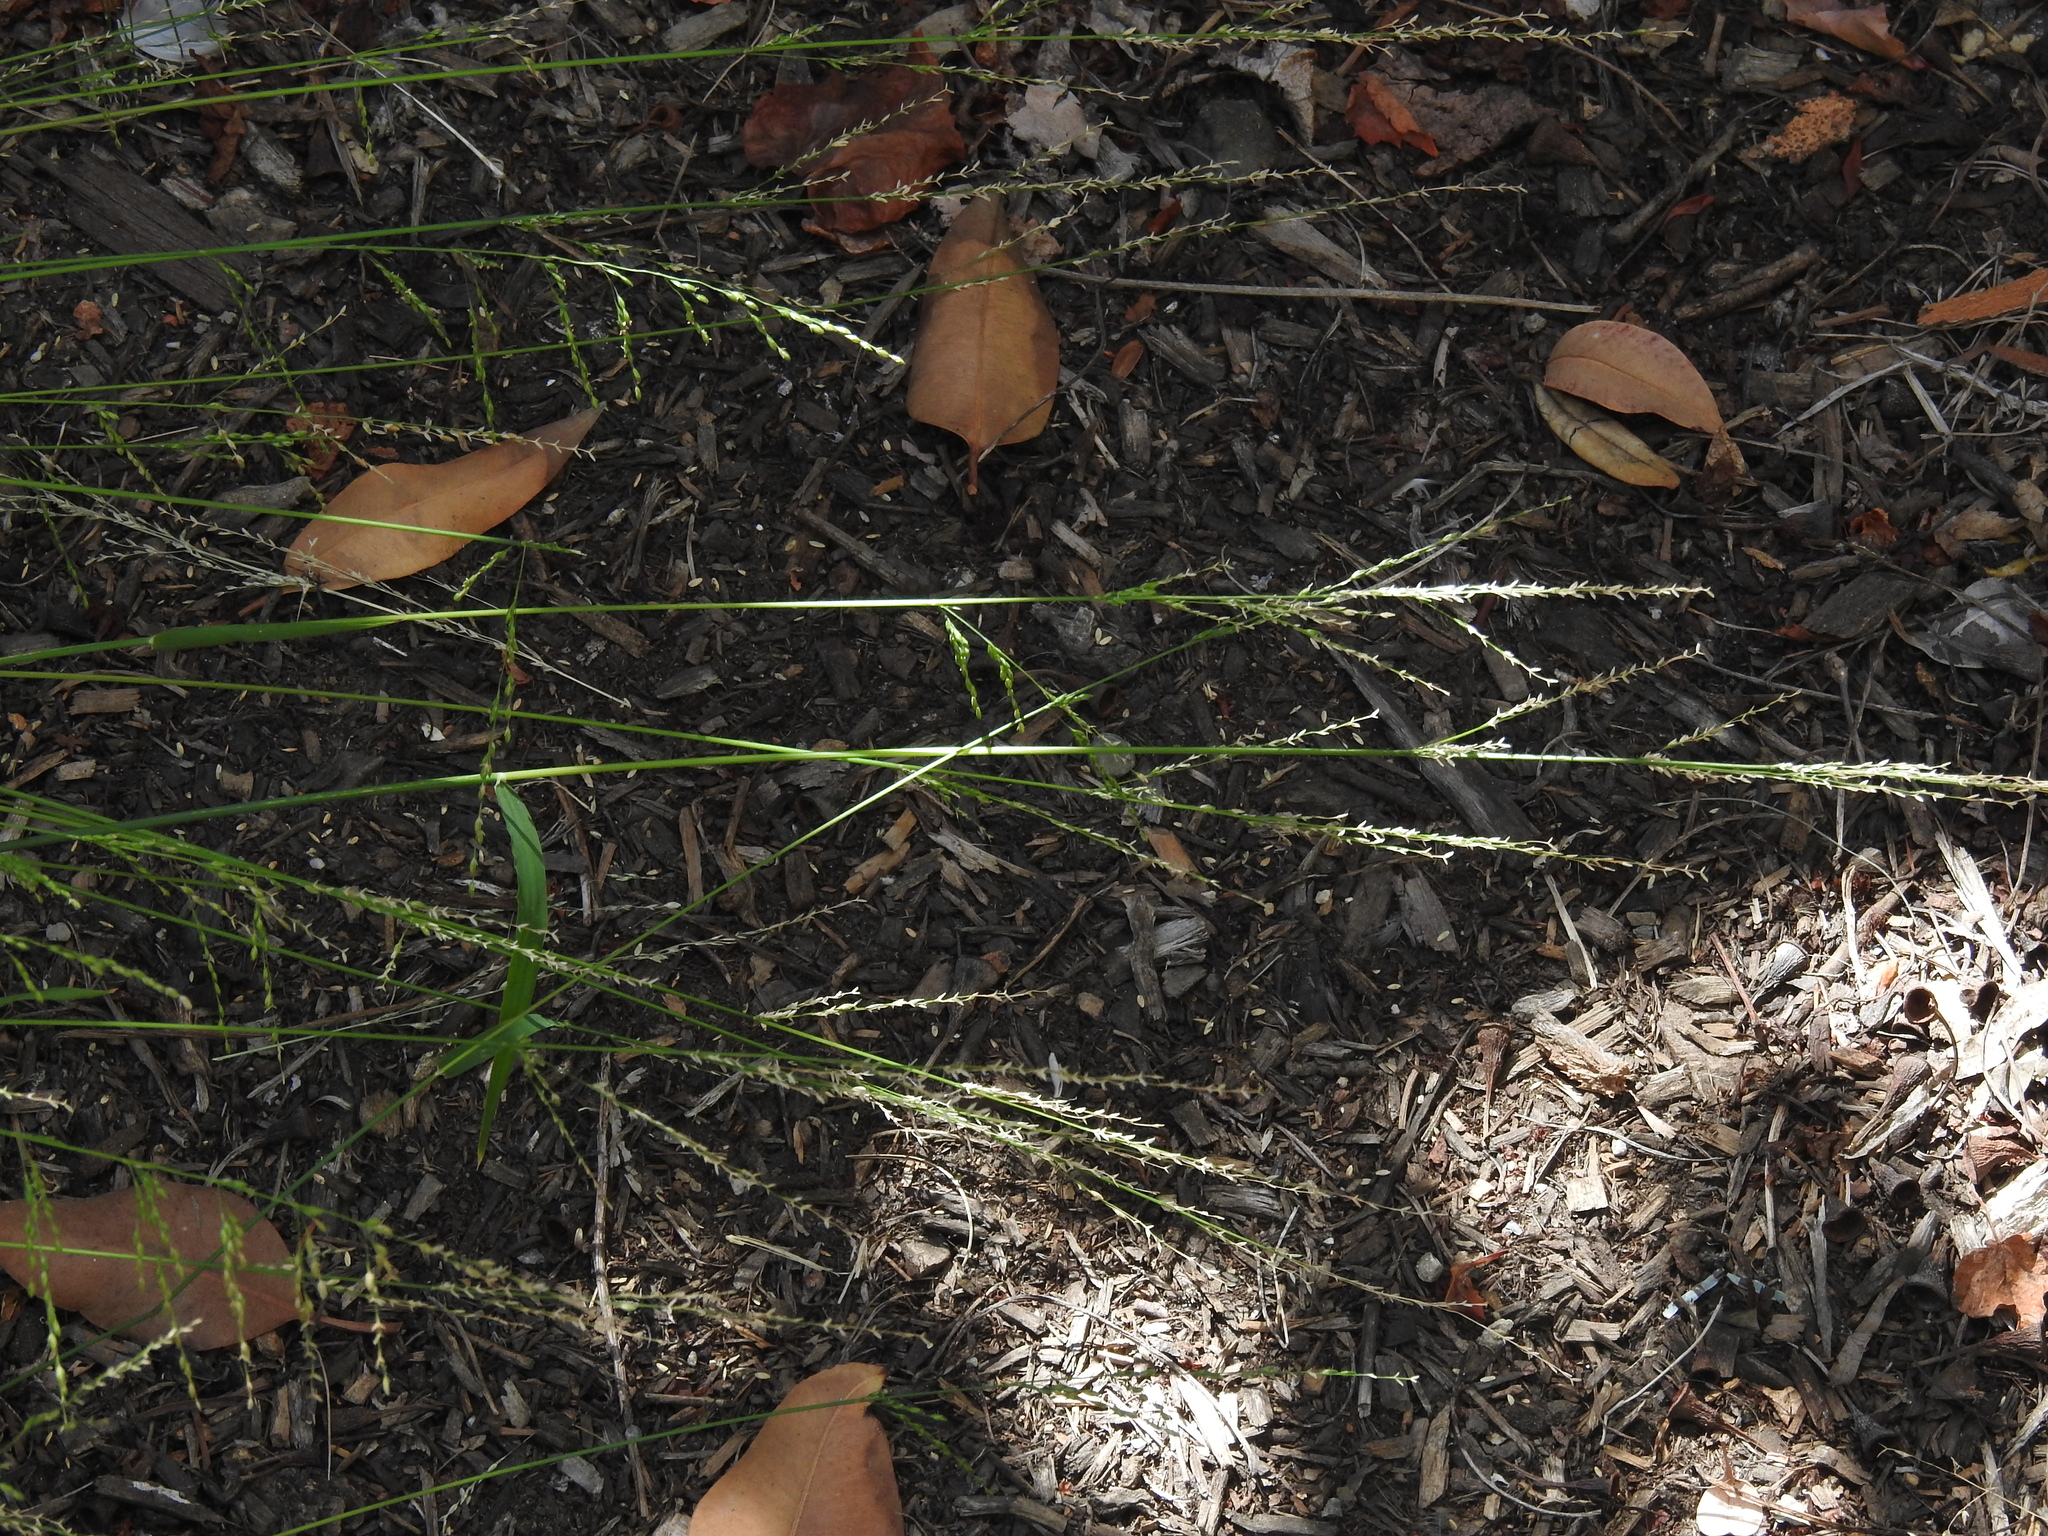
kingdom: Plantae
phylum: Tracheophyta
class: Liliopsida
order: Poales
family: Poaceae
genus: Ehrharta
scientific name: Ehrharta erecta
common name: Panic veldtgrass
